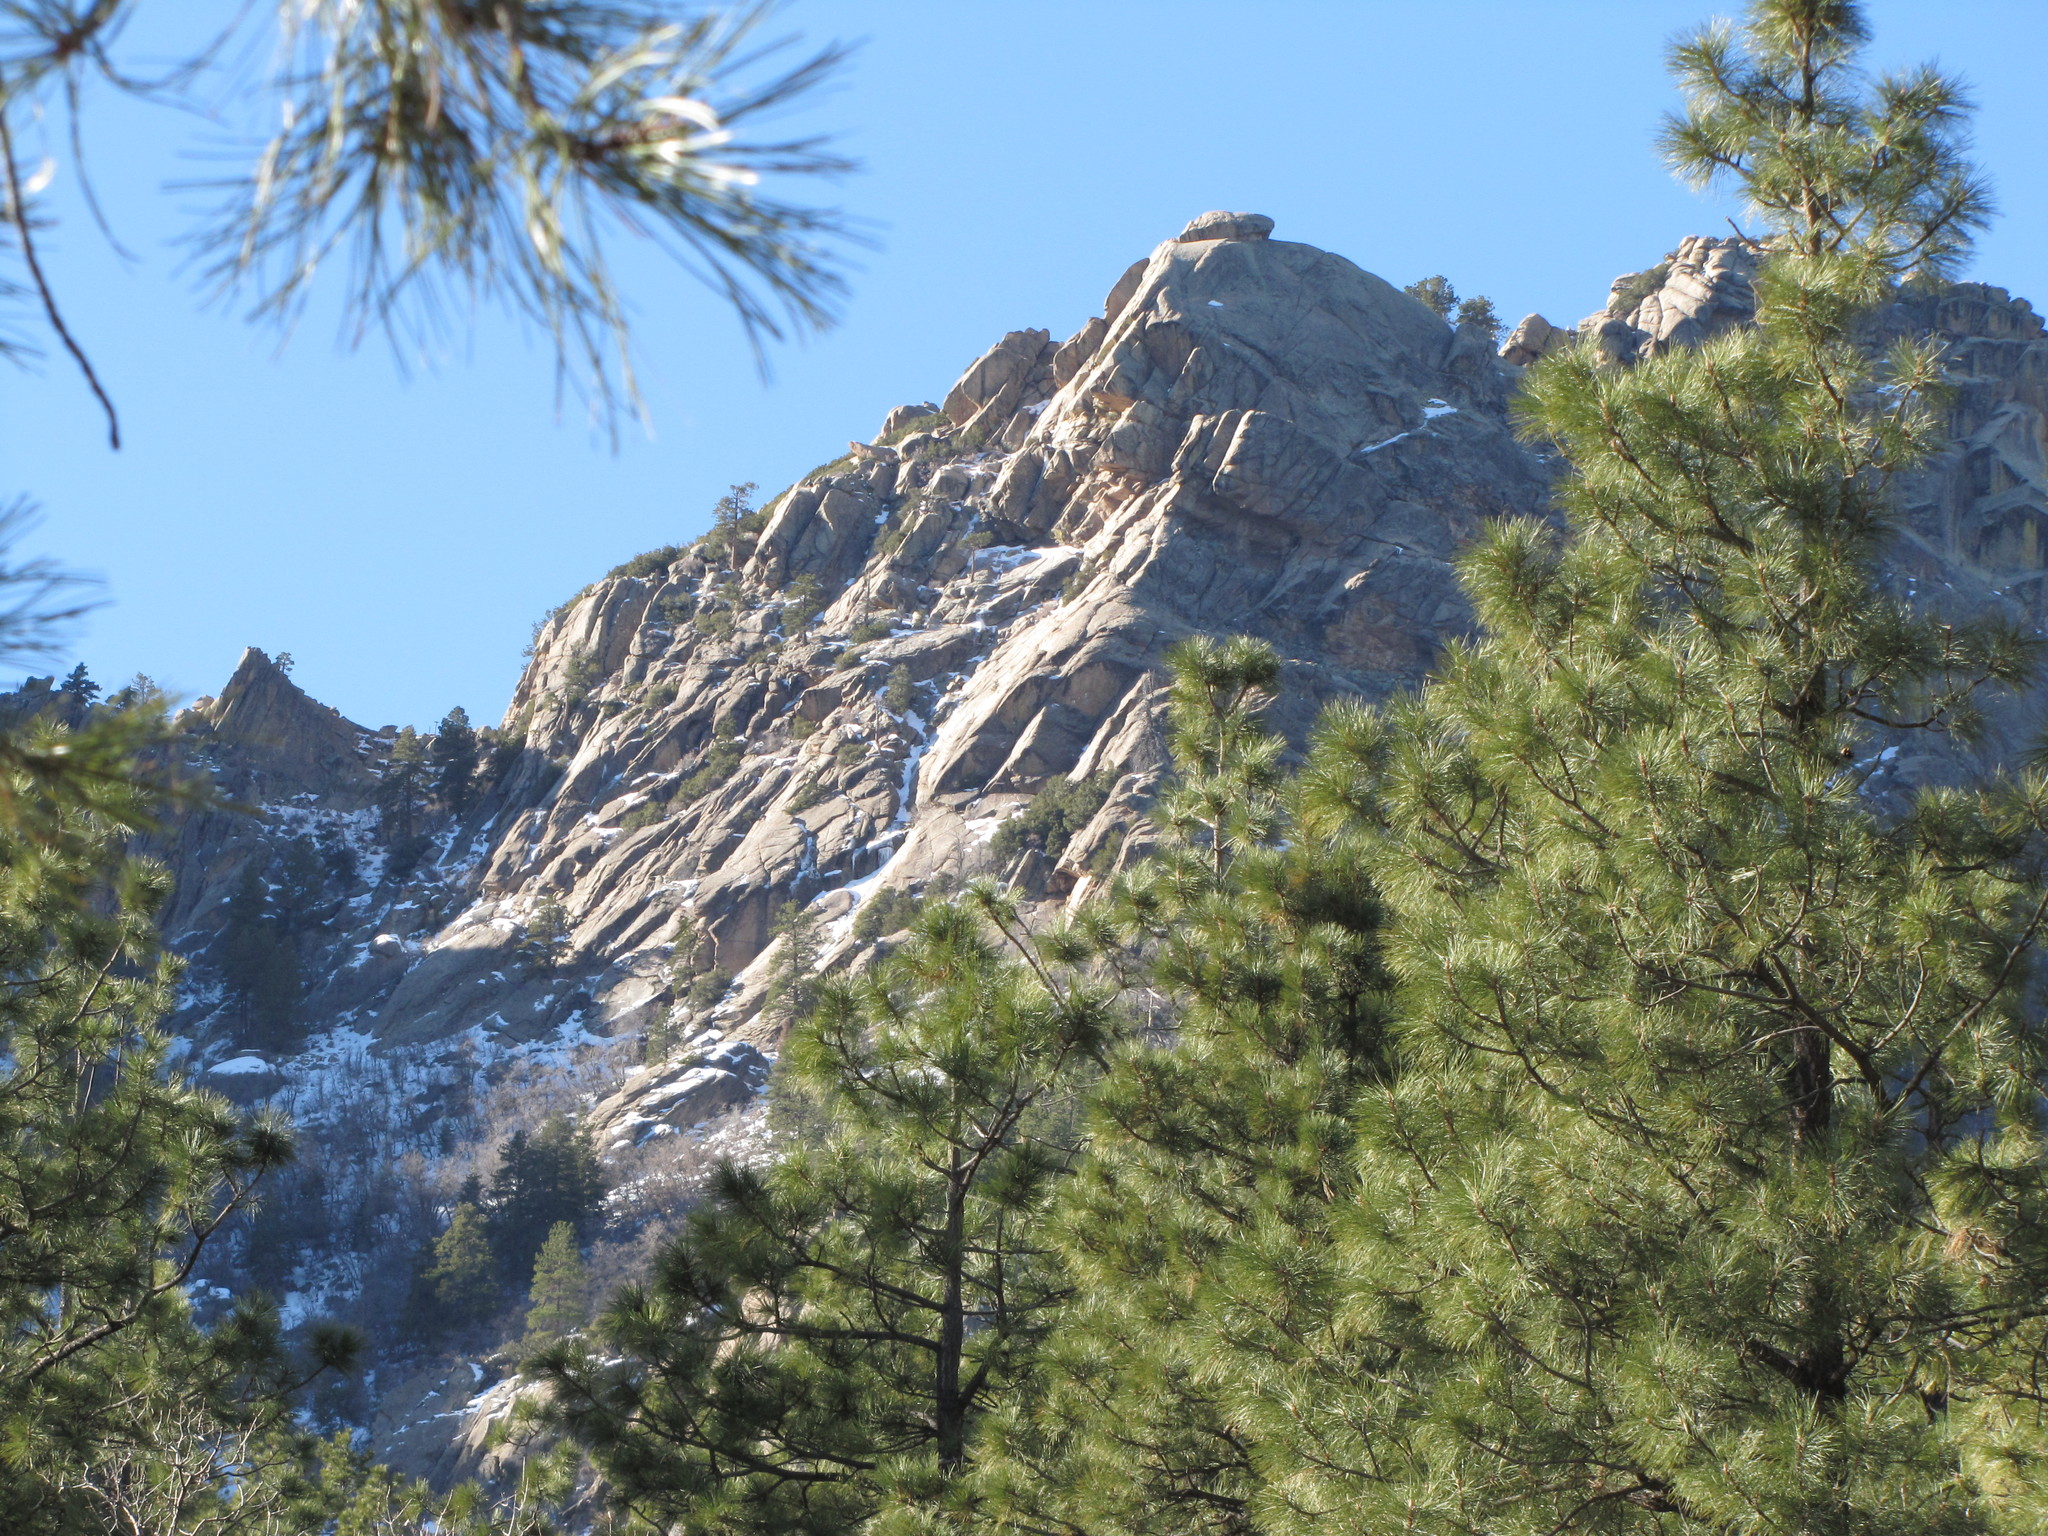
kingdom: Plantae
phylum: Tracheophyta
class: Pinopsida
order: Pinales
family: Pinaceae
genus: Pinus
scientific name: Pinus ponderosa
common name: Western yellow-pine
